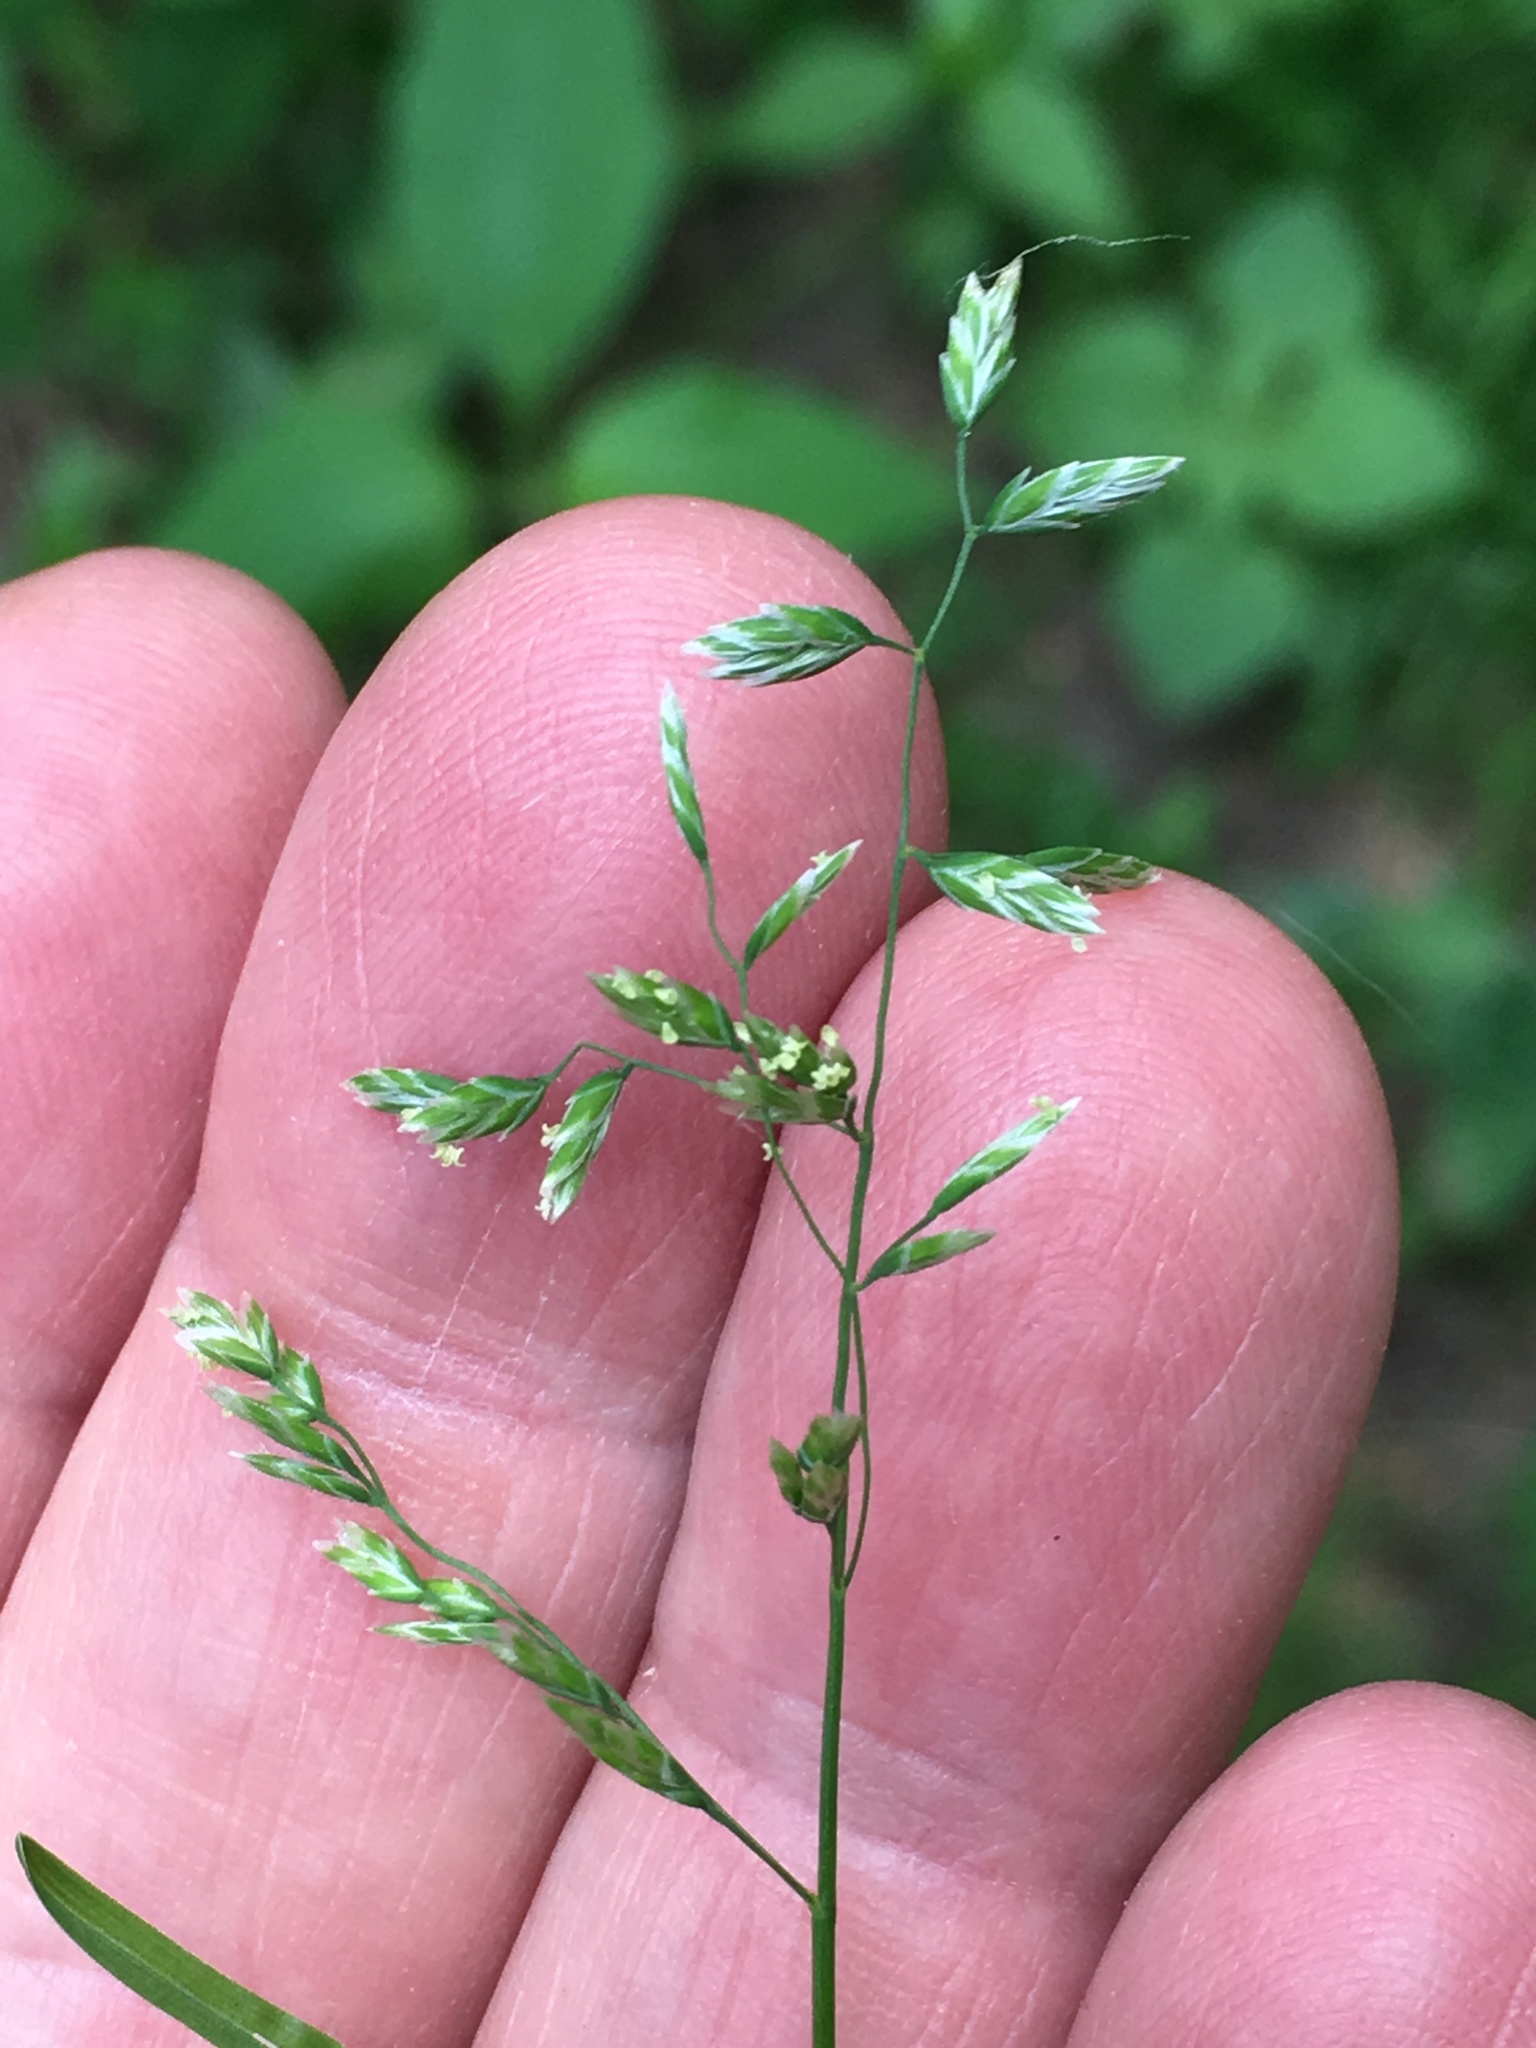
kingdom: Plantae
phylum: Tracheophyta
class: Liliopsida
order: Poales
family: Poaceae
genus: Poa
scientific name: Poa annua
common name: Annual bluegrass
